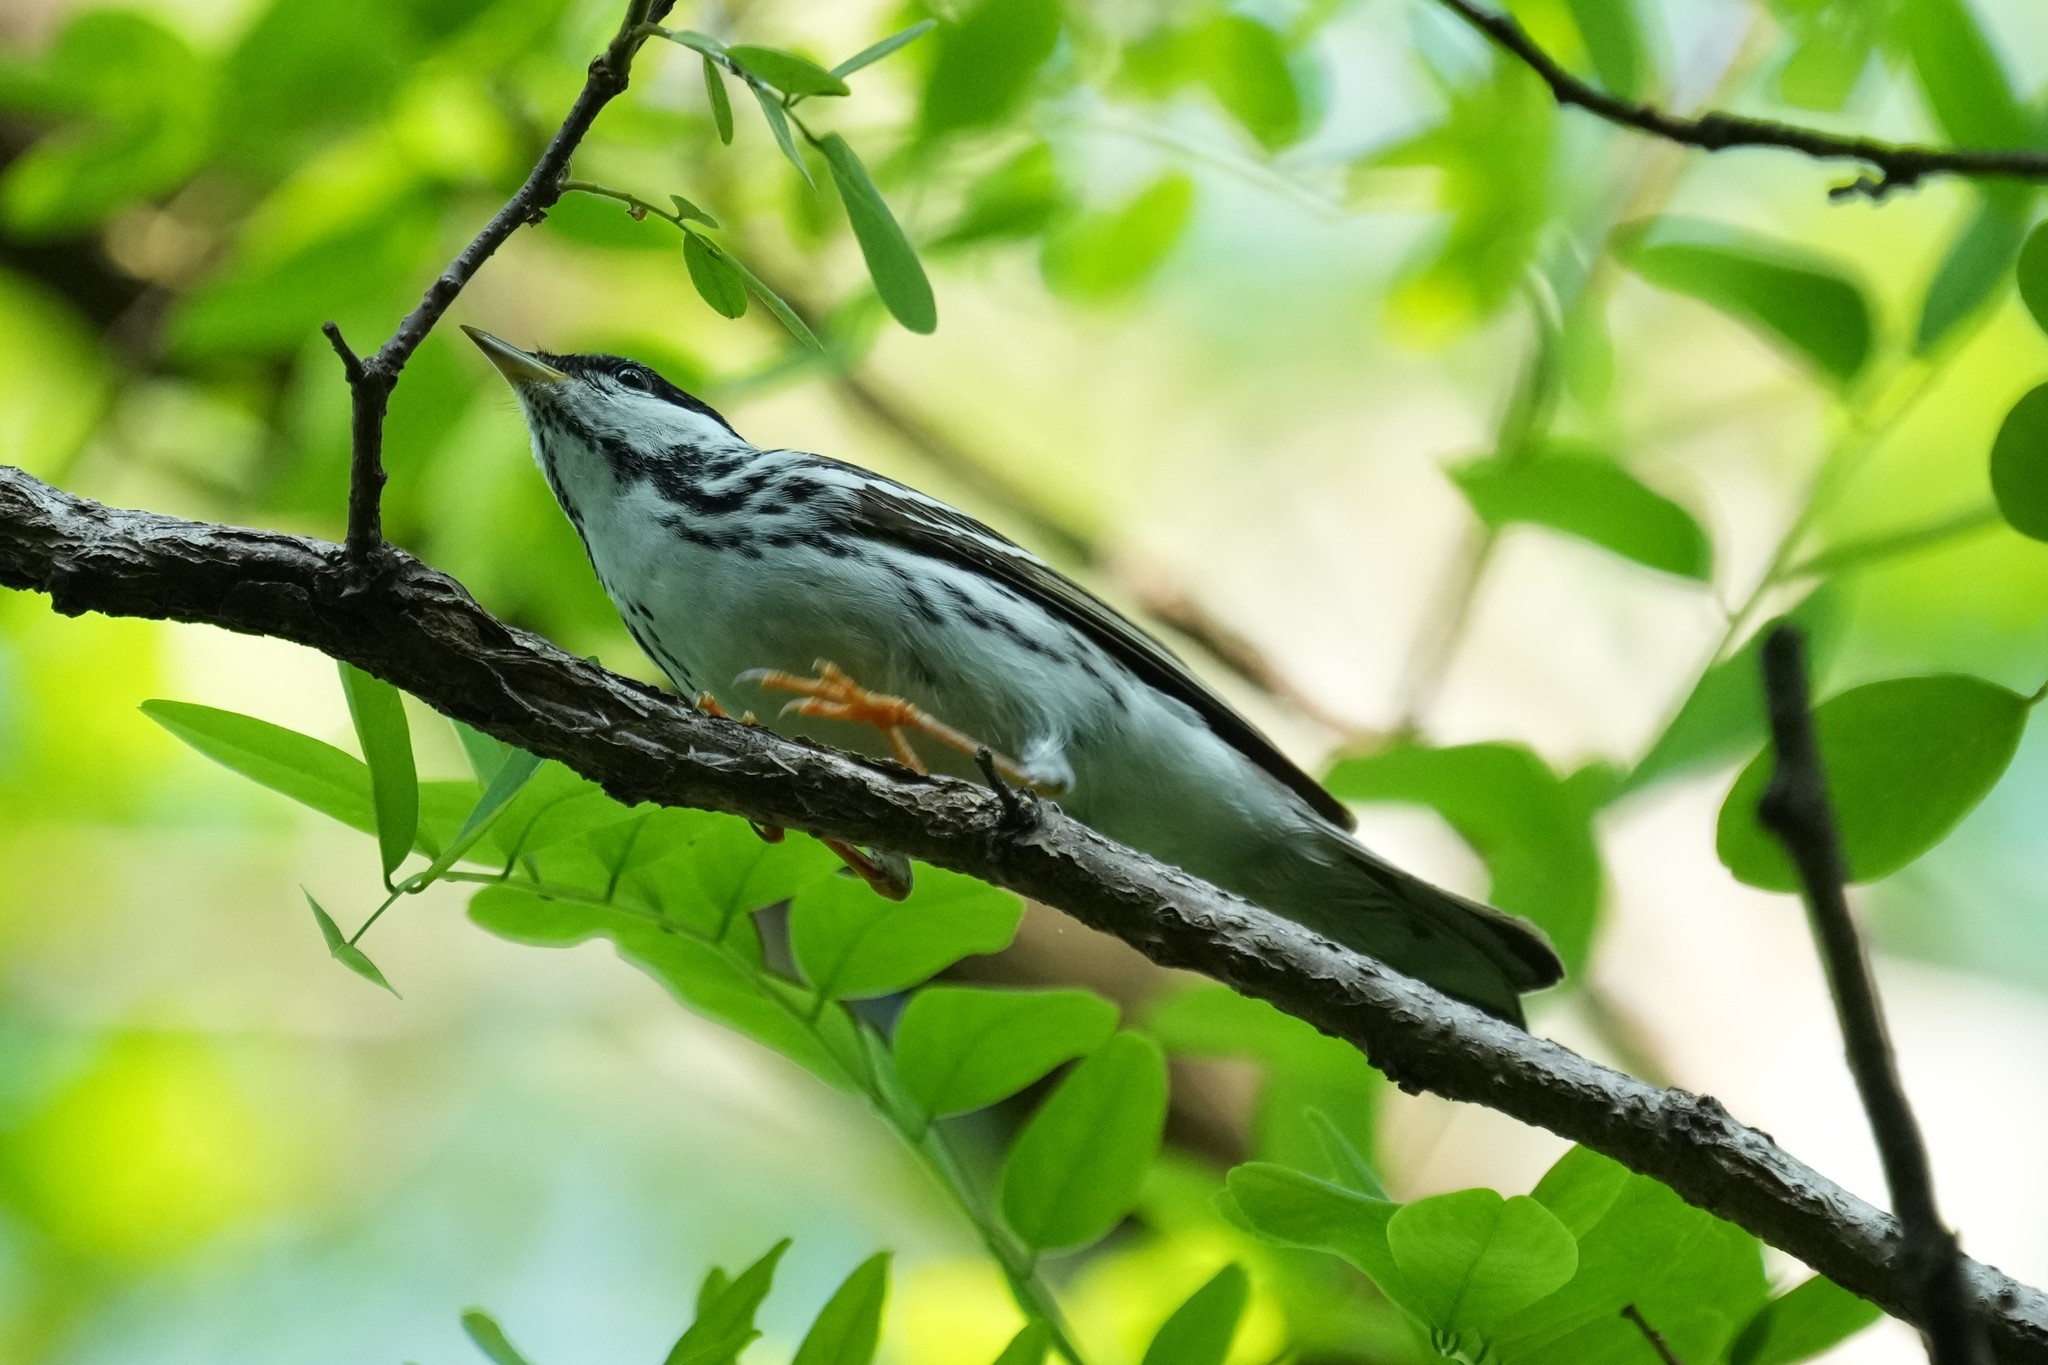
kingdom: Animalia
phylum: Chordata
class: Aves
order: Passeriformes
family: Parulidae
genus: Setophaga
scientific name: Setophaga striata
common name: Blackpoll warbler
